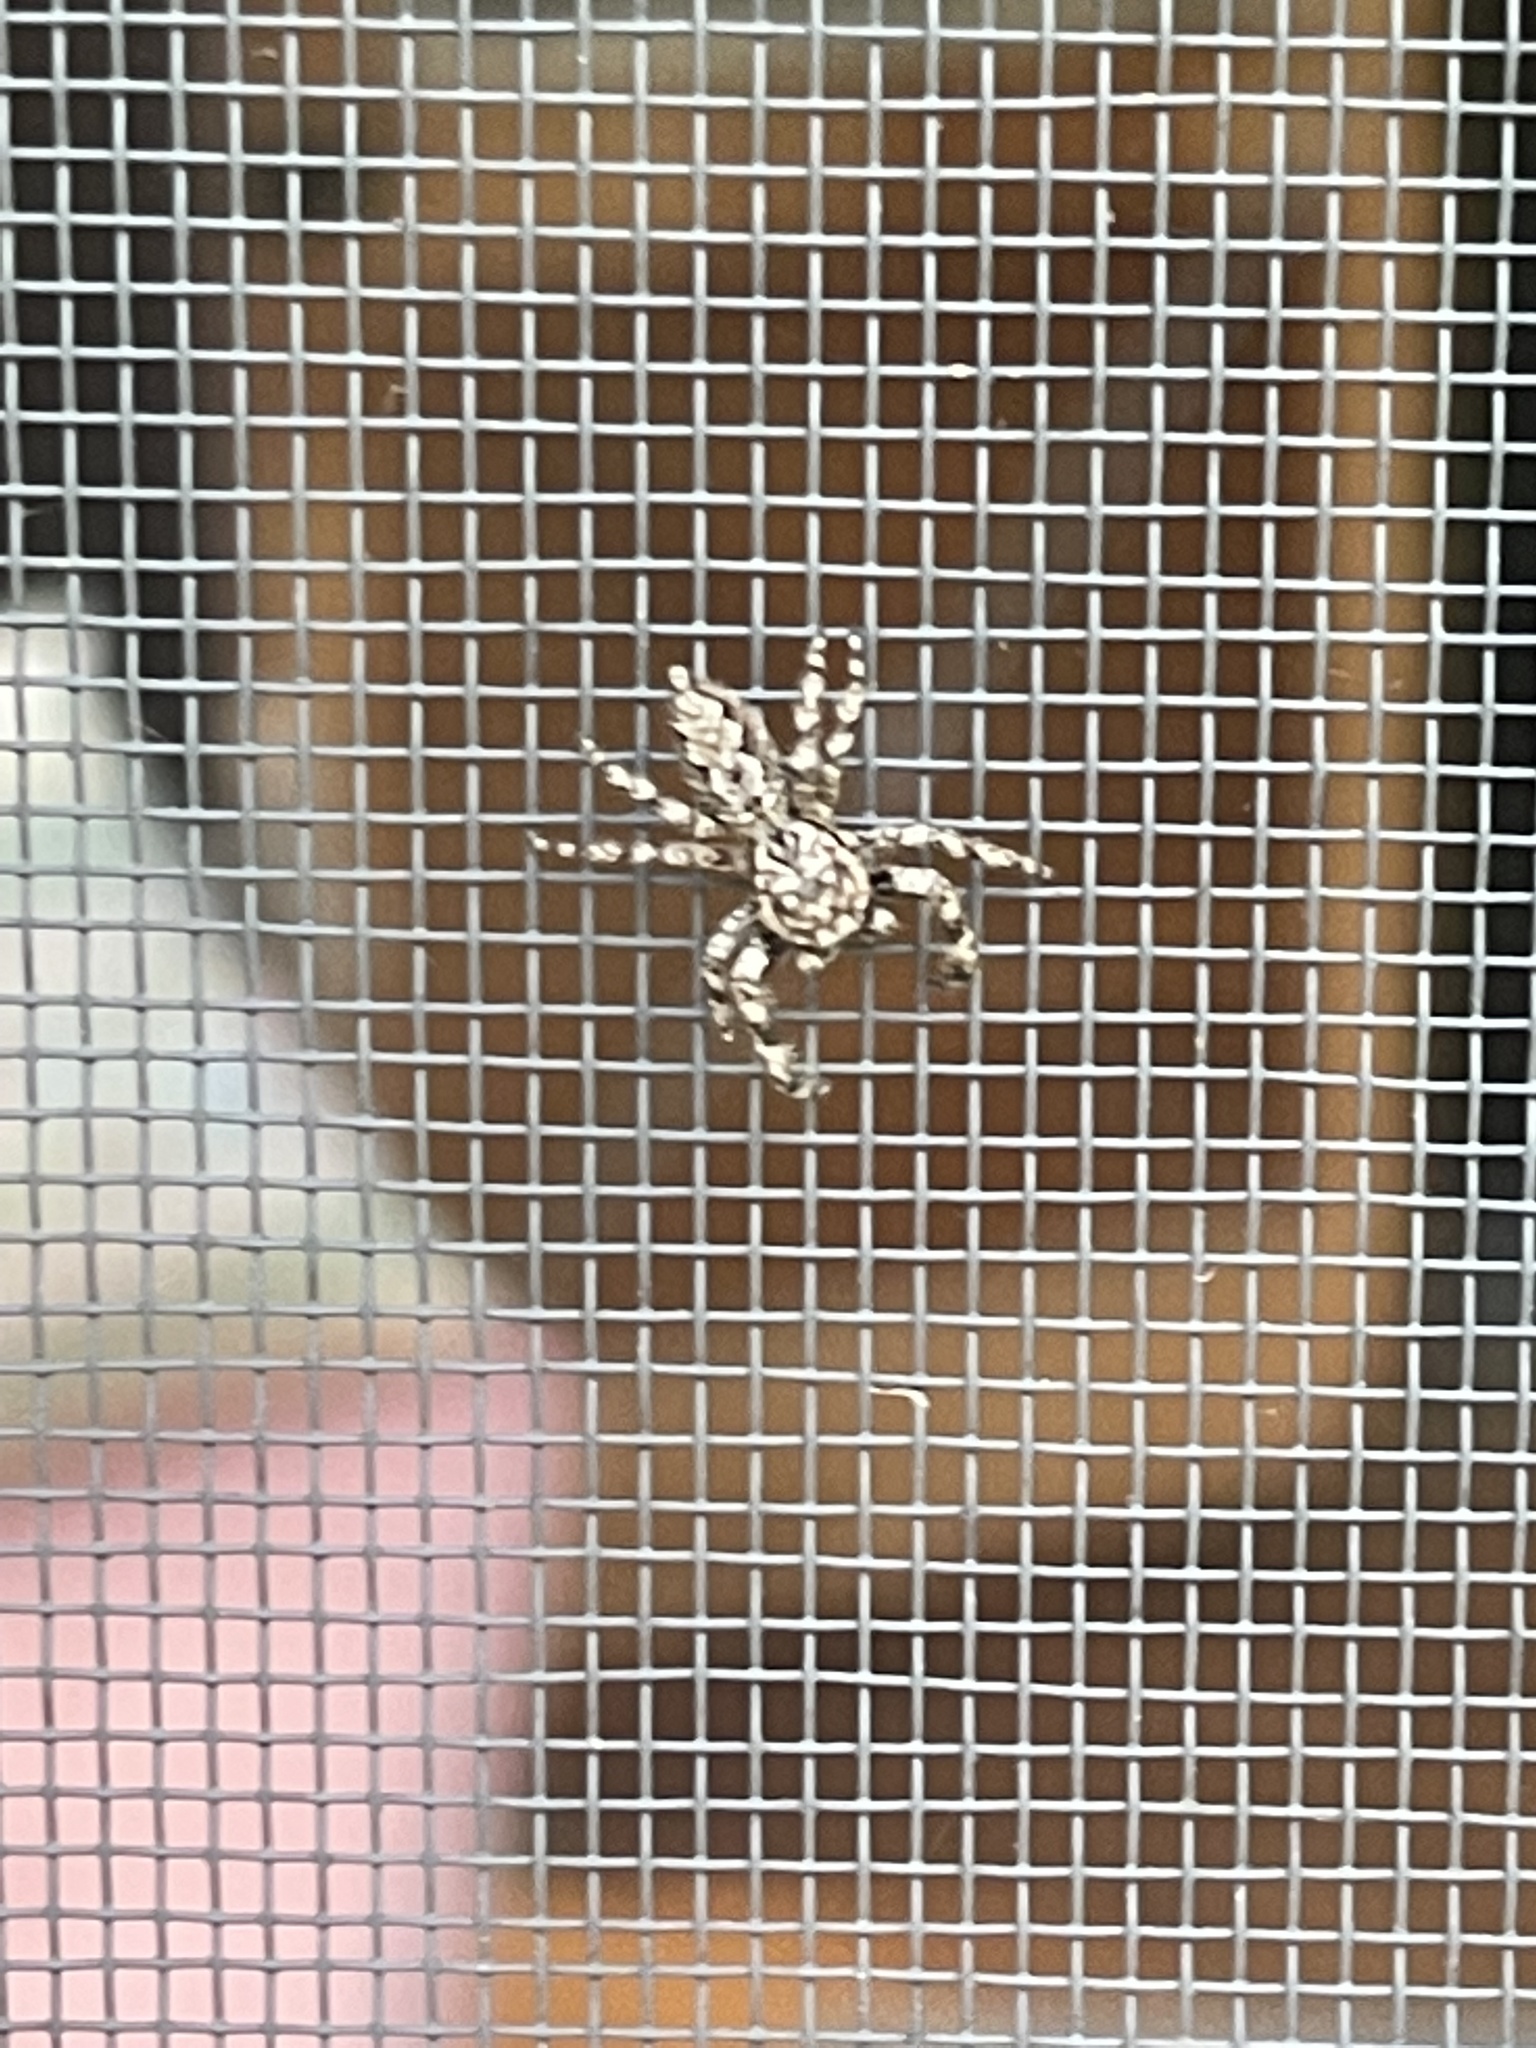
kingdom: Animalia
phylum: Arthropoda
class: Arachnida
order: Araneae
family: Salticidae
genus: Platycryptus
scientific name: Platycryptus undatus
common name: Tan jumping spider
